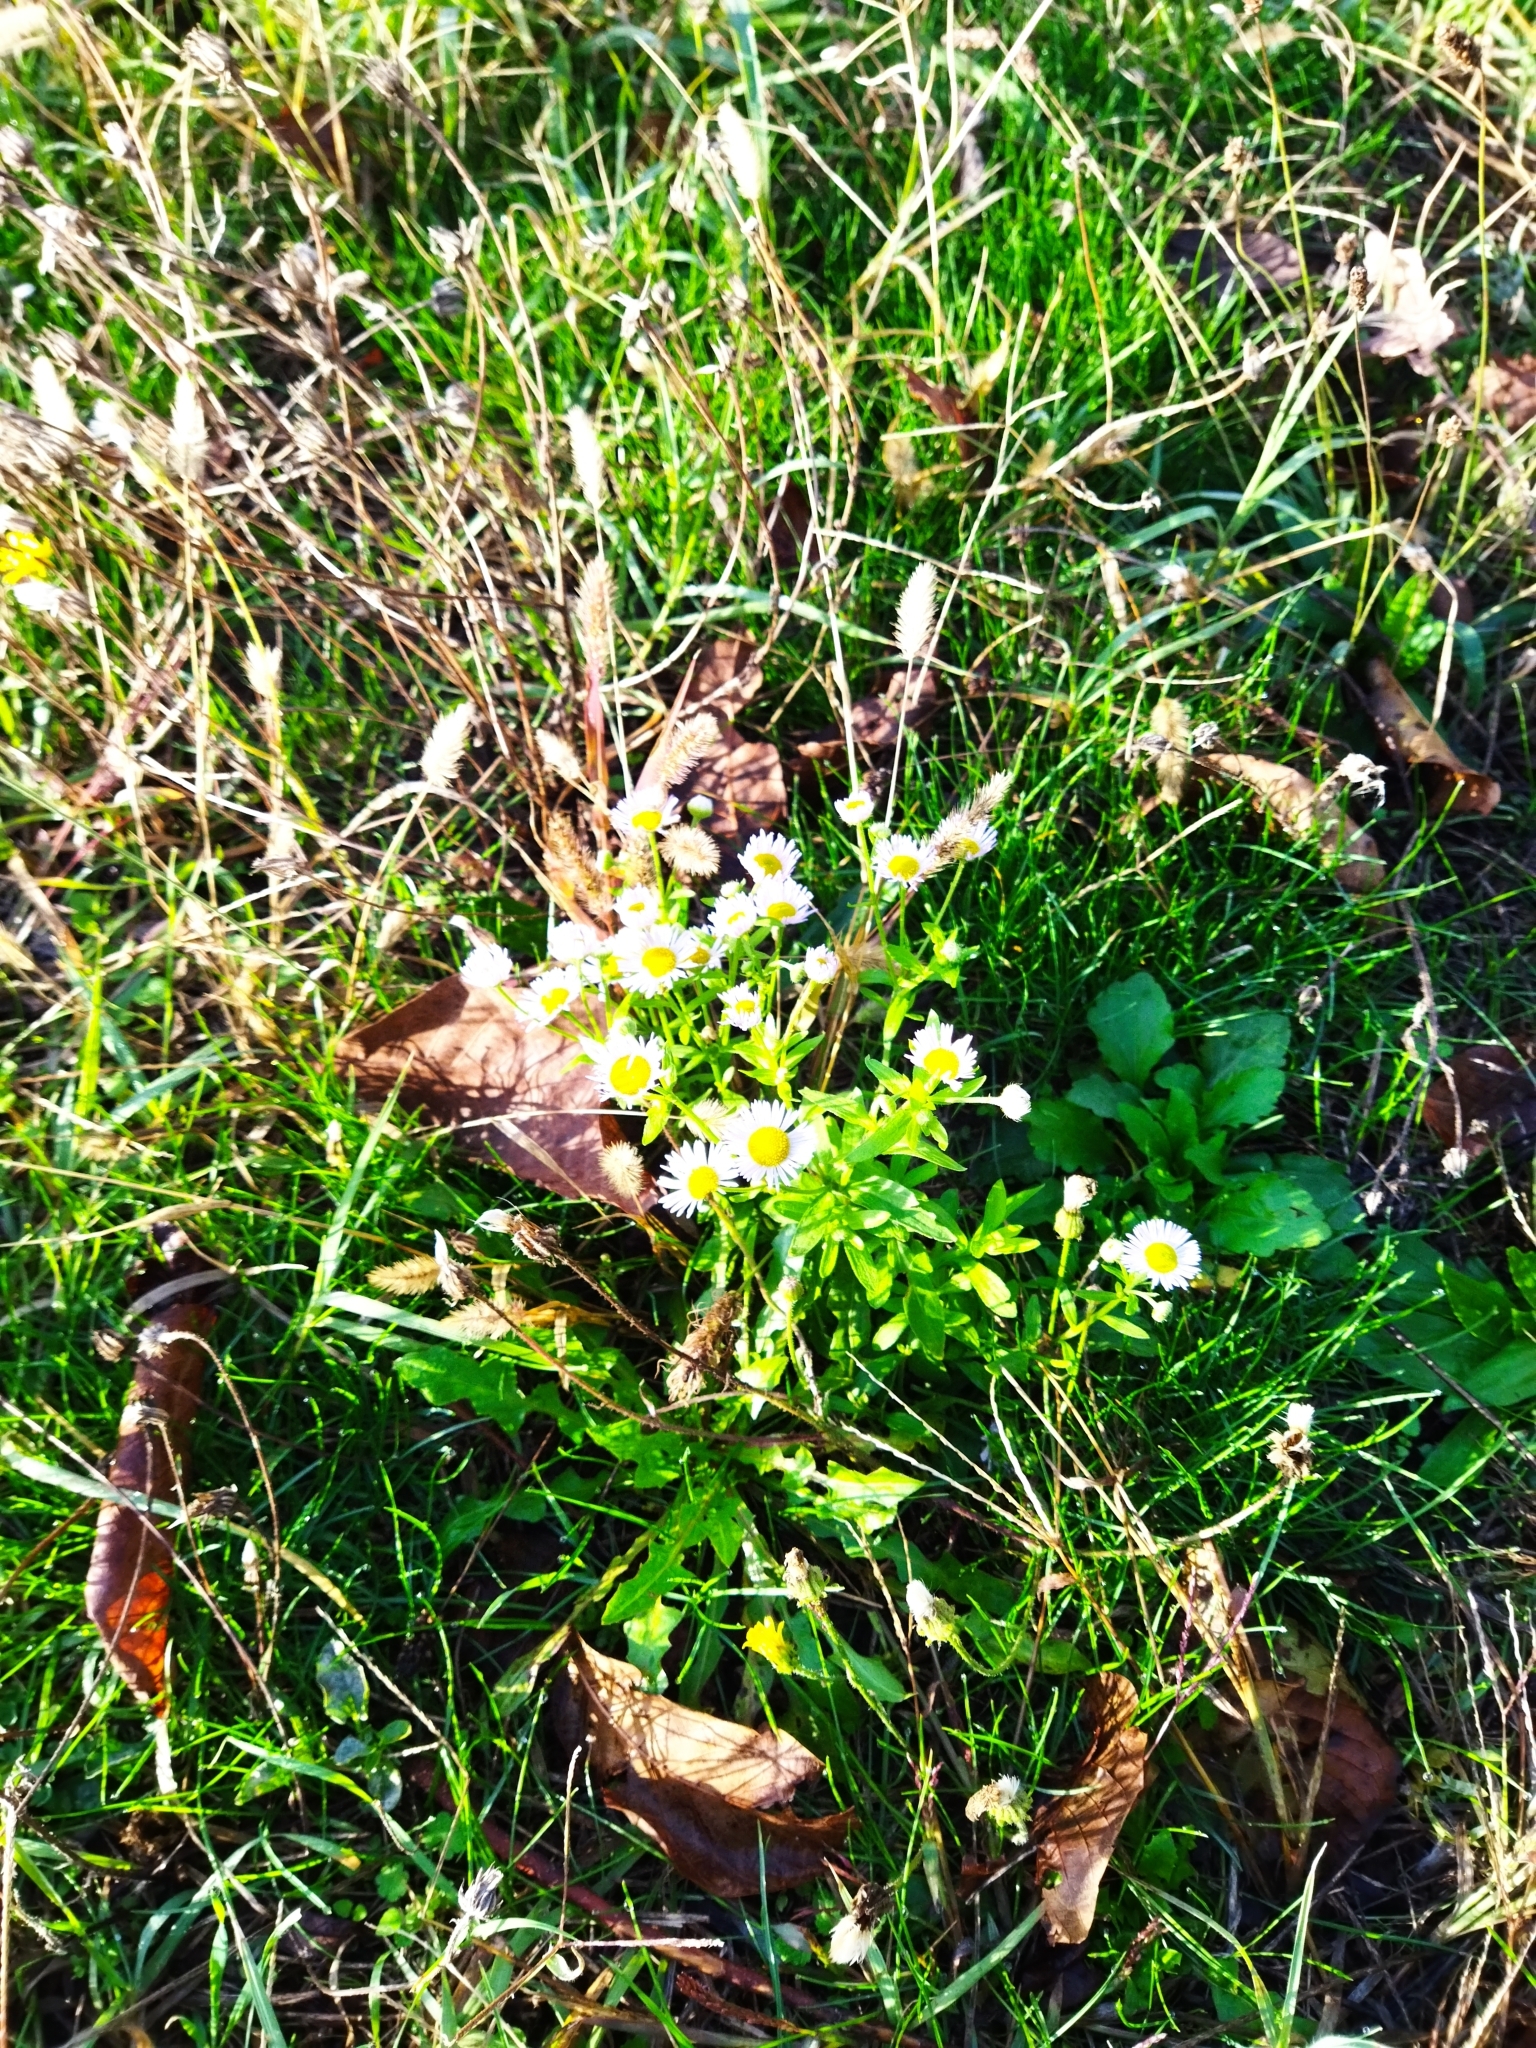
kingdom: Plantae
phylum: Tracheophyta
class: Magnoliopsida
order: Asterales
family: Asteraceae
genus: Erigeron
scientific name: Erigeron annuus
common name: Tall fleabane
